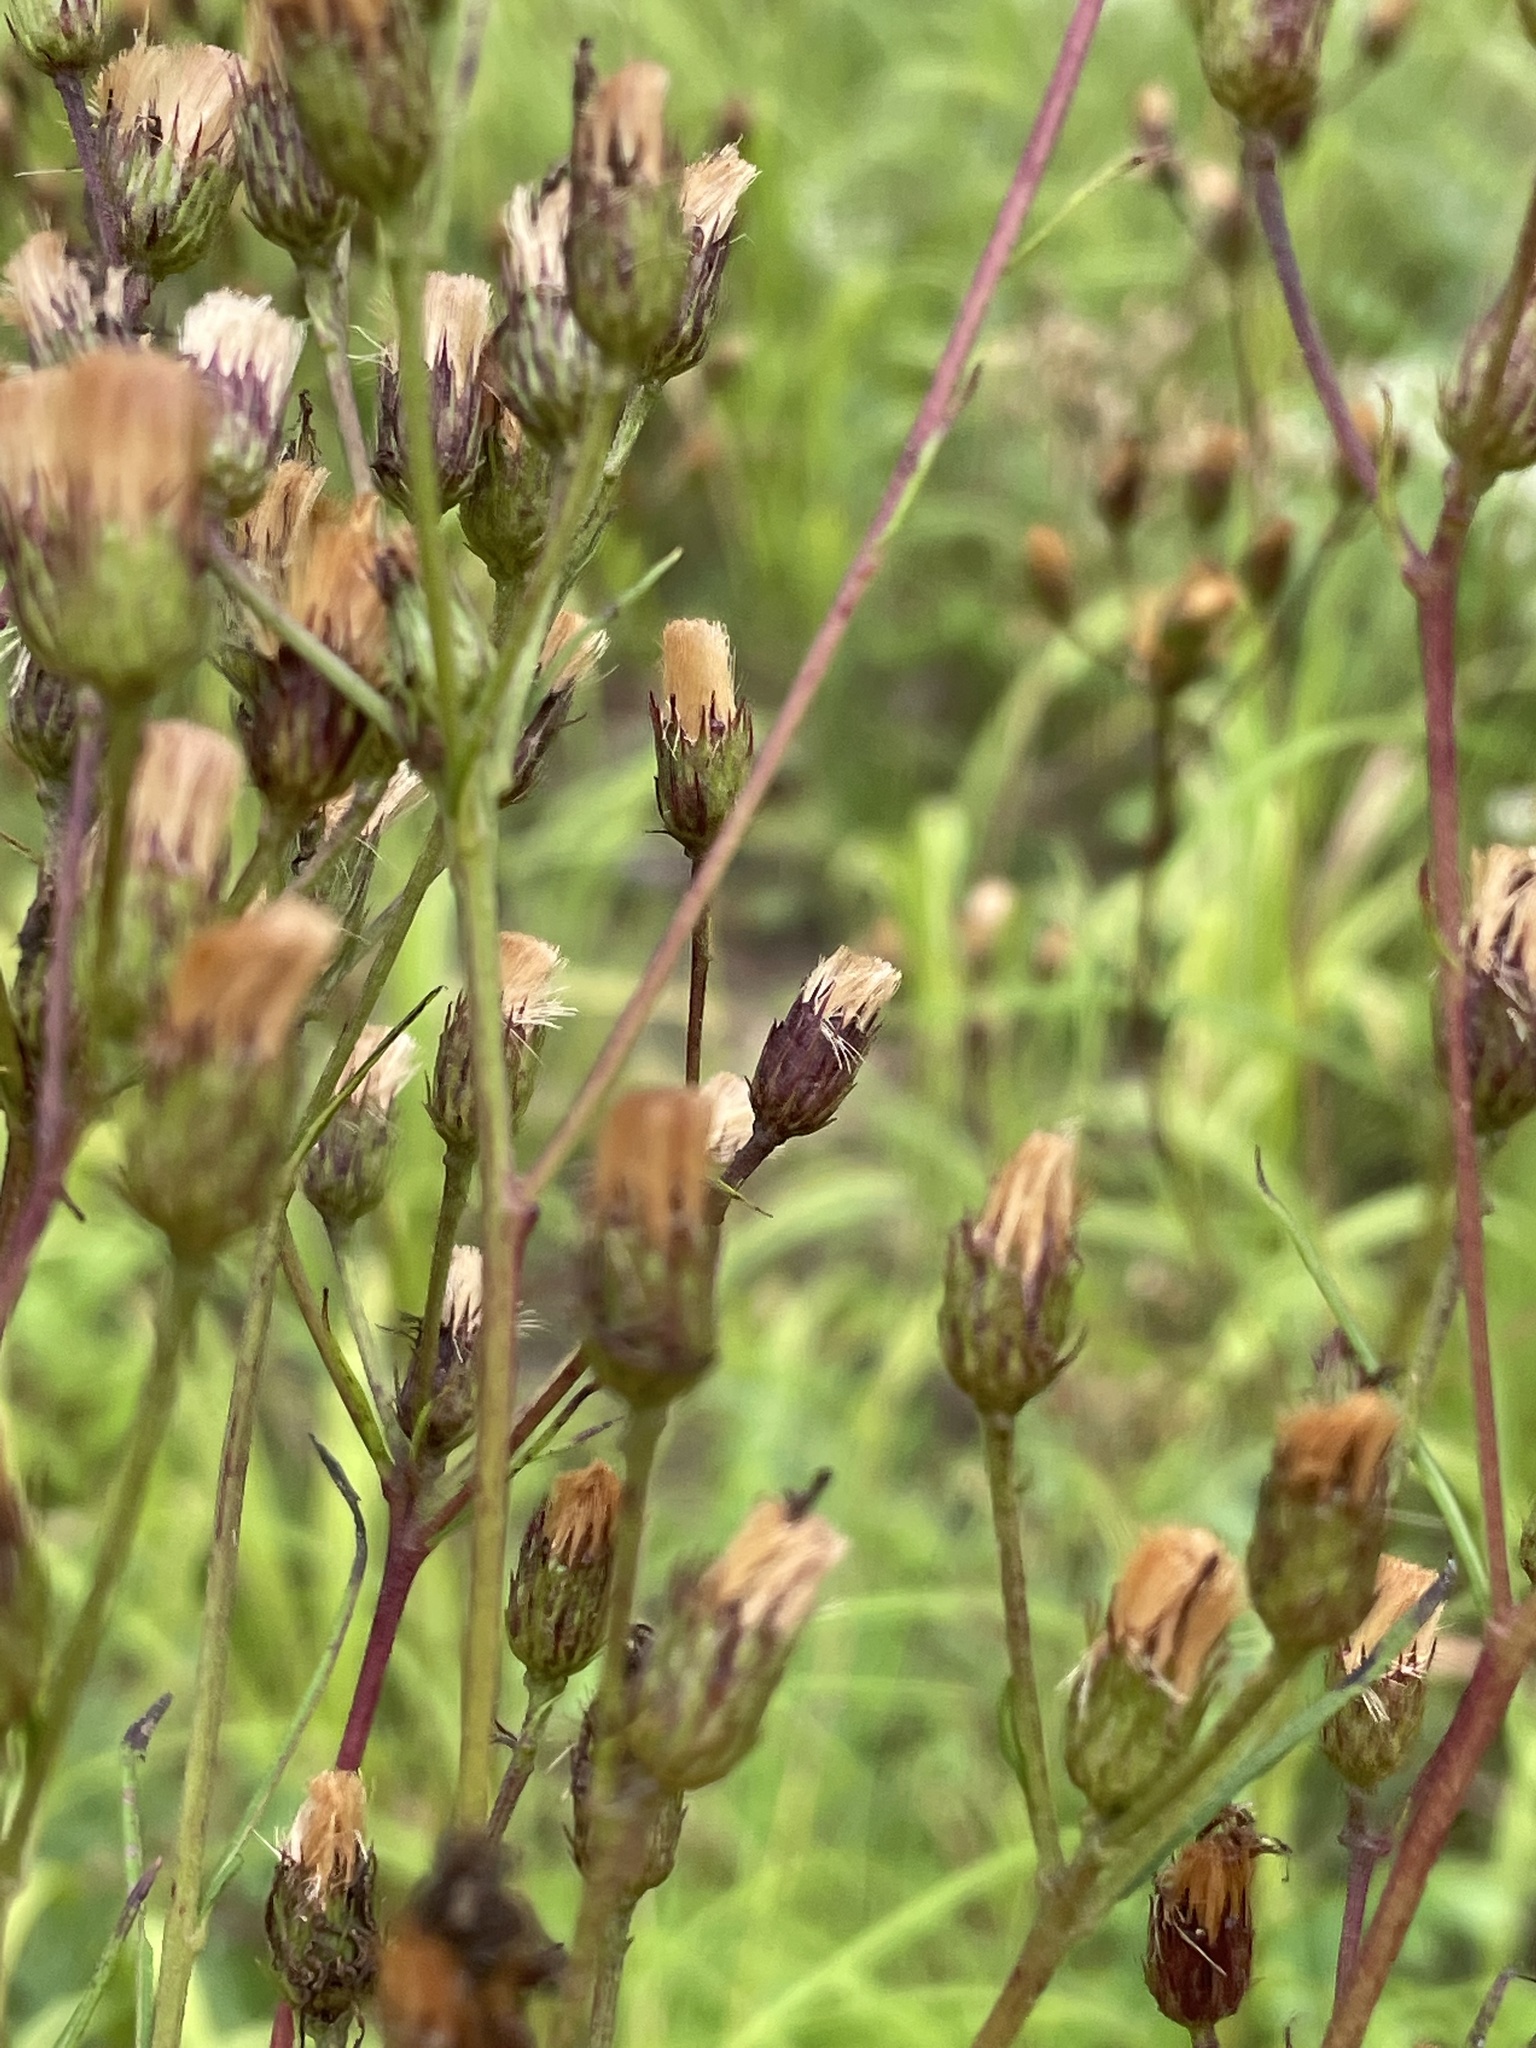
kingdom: Plantae
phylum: Tracheophyta
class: Magnoliopsida
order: Asterales
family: Asteraceae
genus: Vernonia
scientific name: Vernonia angustifolia
